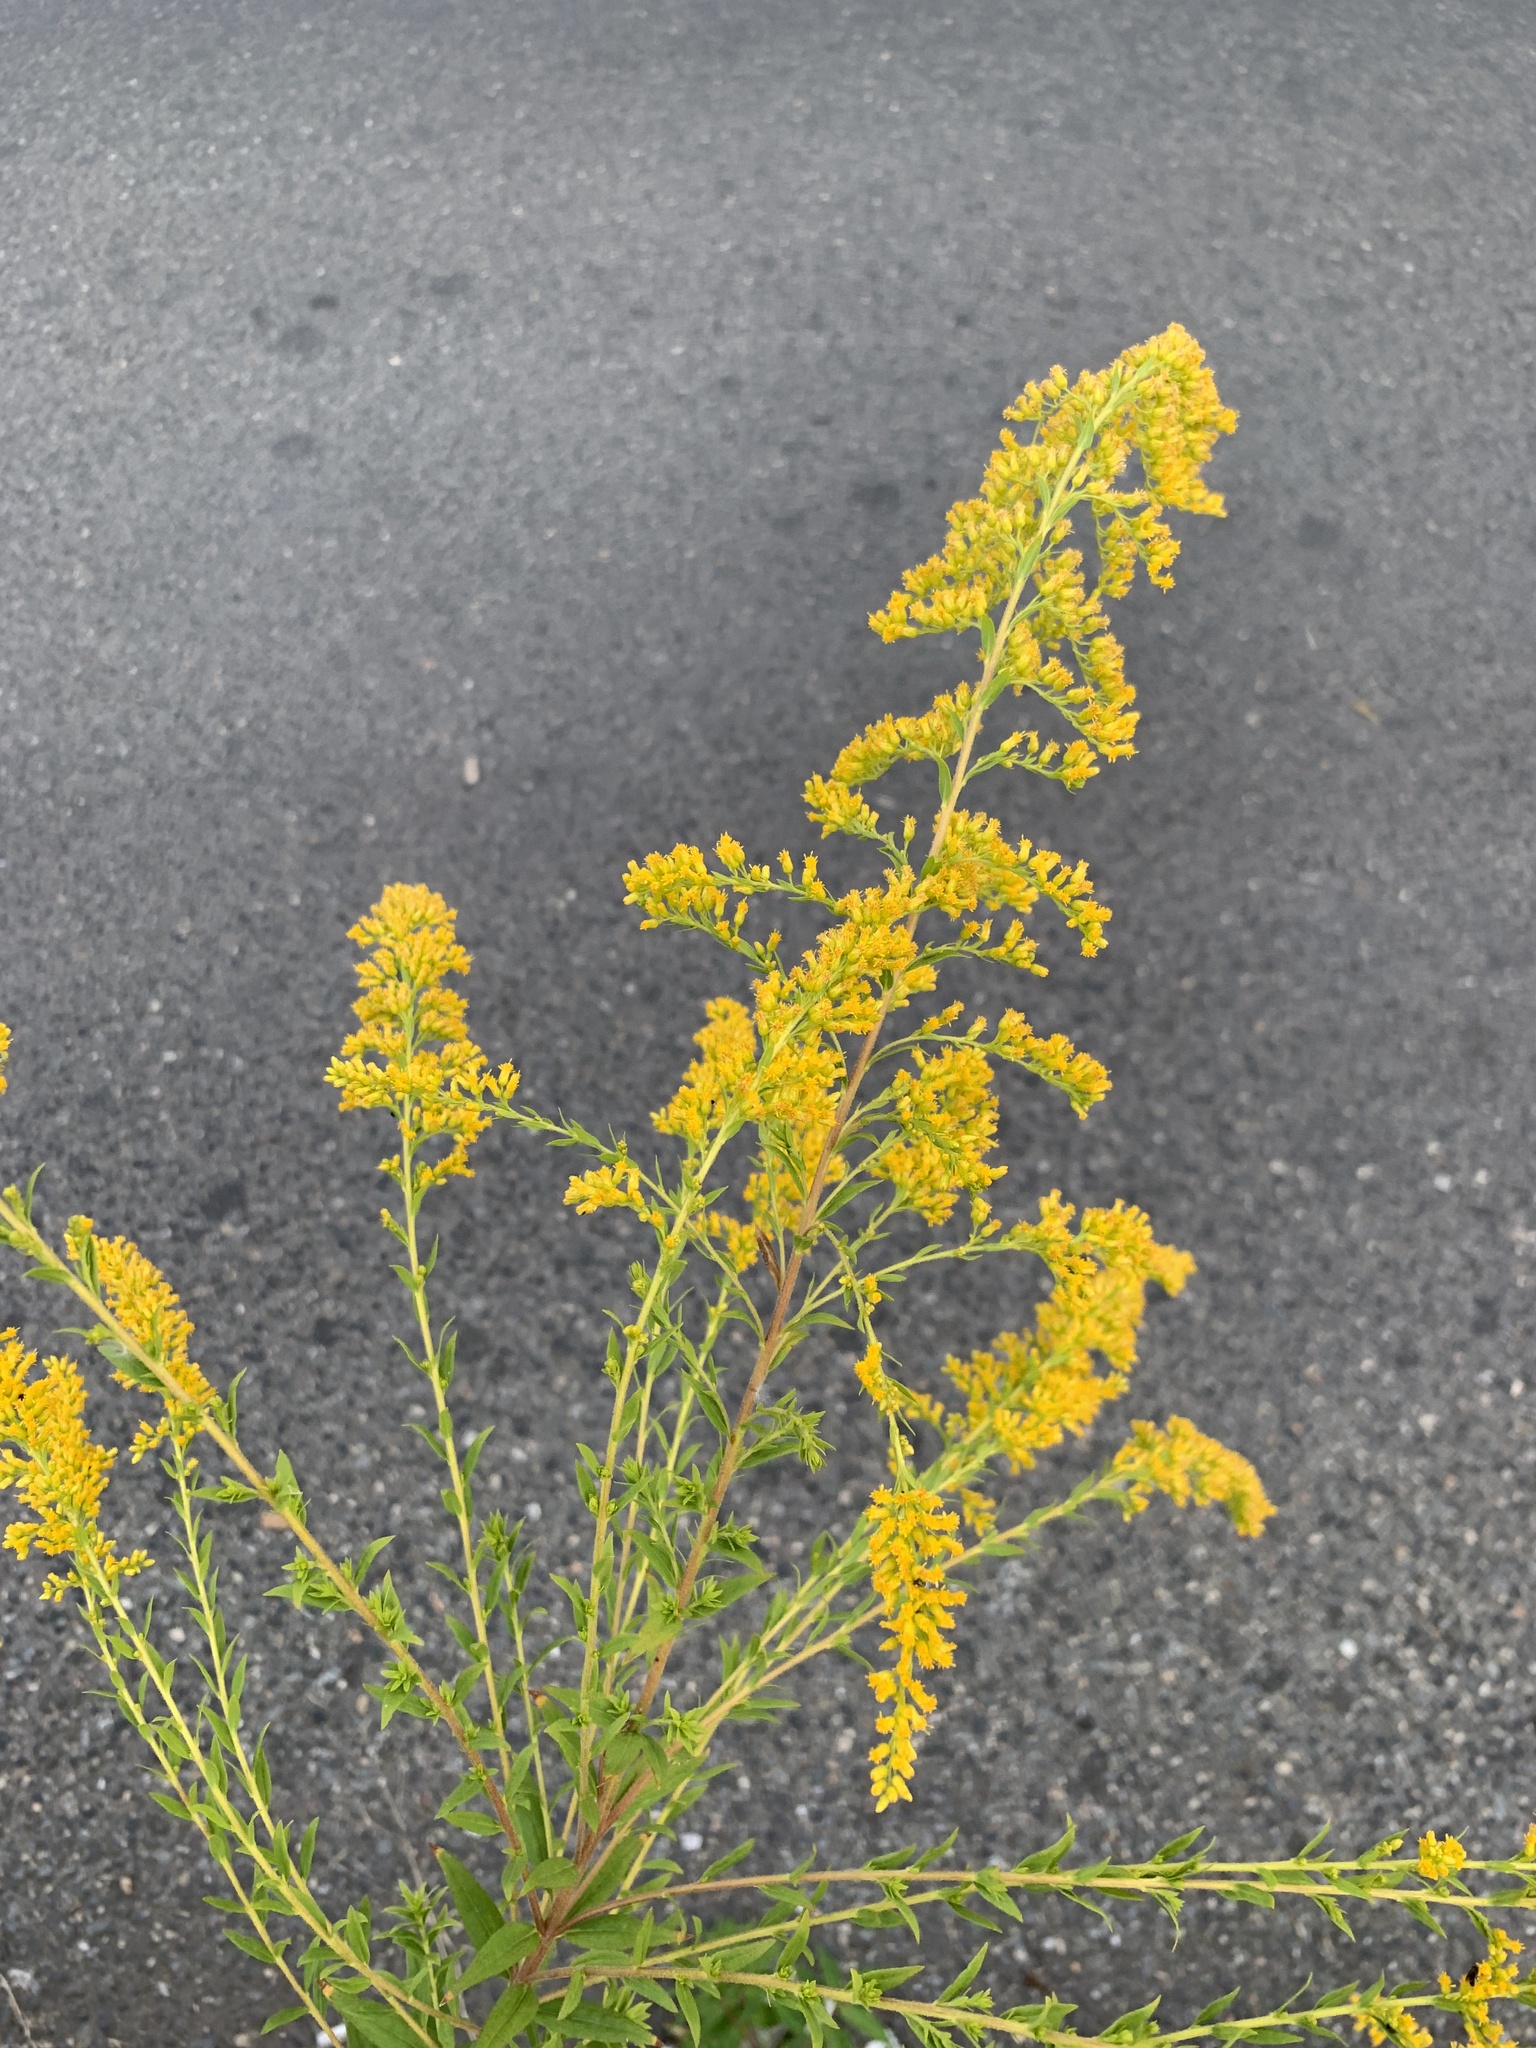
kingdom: Plantae
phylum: Tracheophyta
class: Magnoliopsida
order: Asterales
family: Asteraceae
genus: Solidago
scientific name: Solidago canadensis
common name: Canada goldenrod
